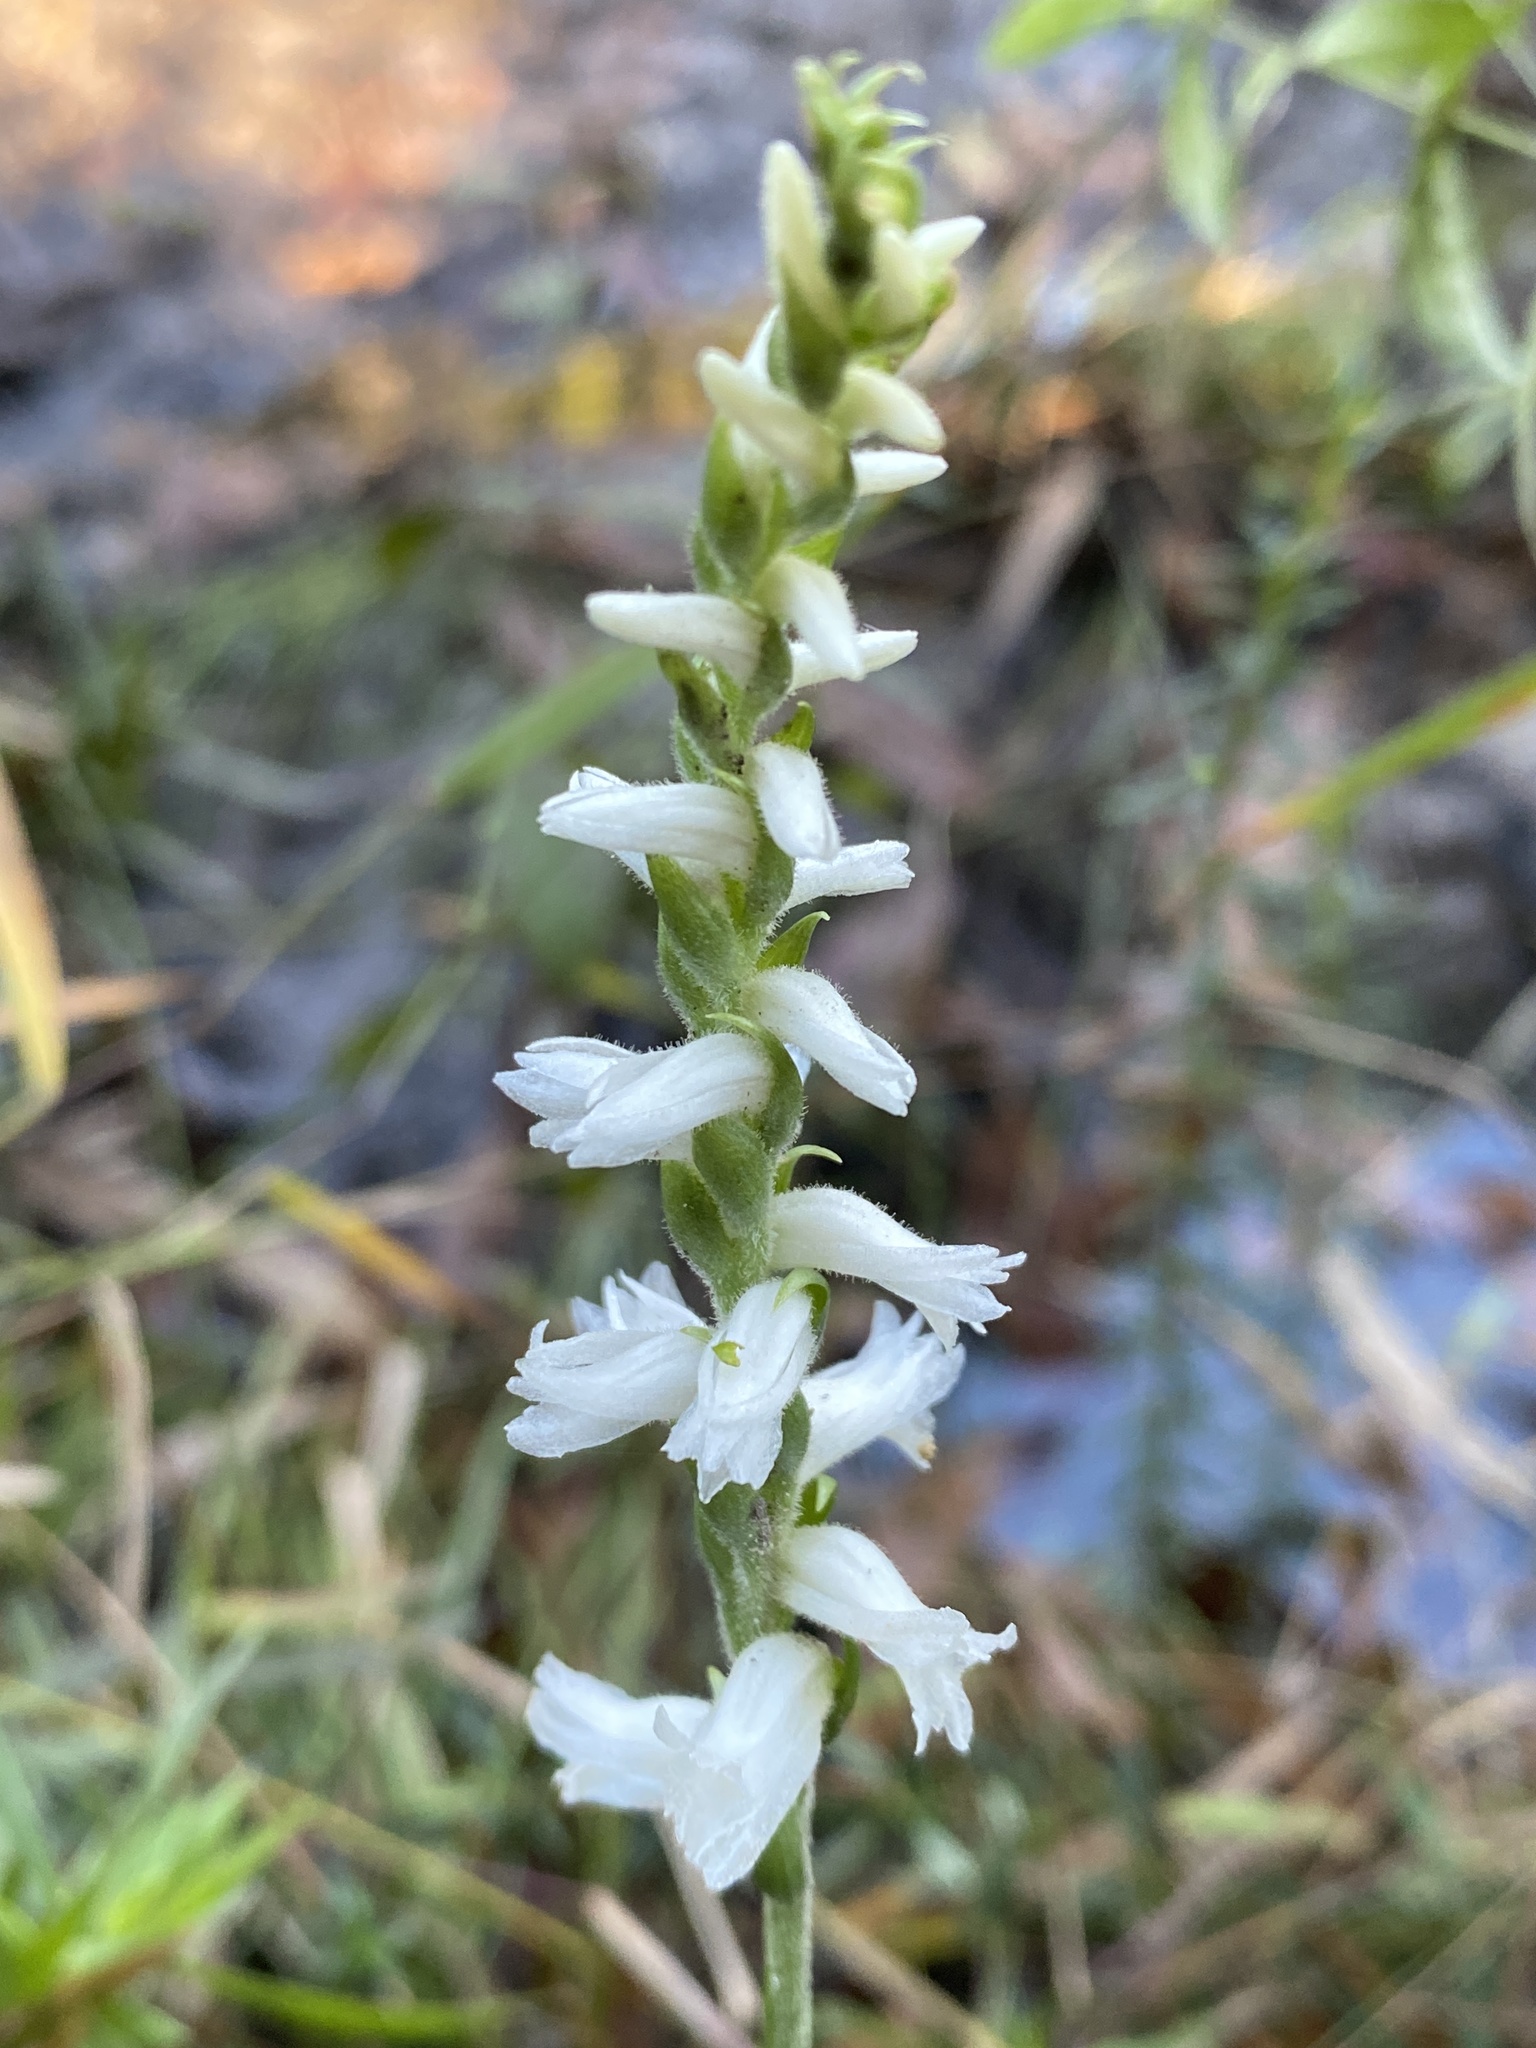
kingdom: Plantae
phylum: Tracheophyta
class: Liliopsida
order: Asparagales
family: Orchidaceae
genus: Spiranthes
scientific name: Spiranthes cernua
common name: Dropping ladies'-tresses
